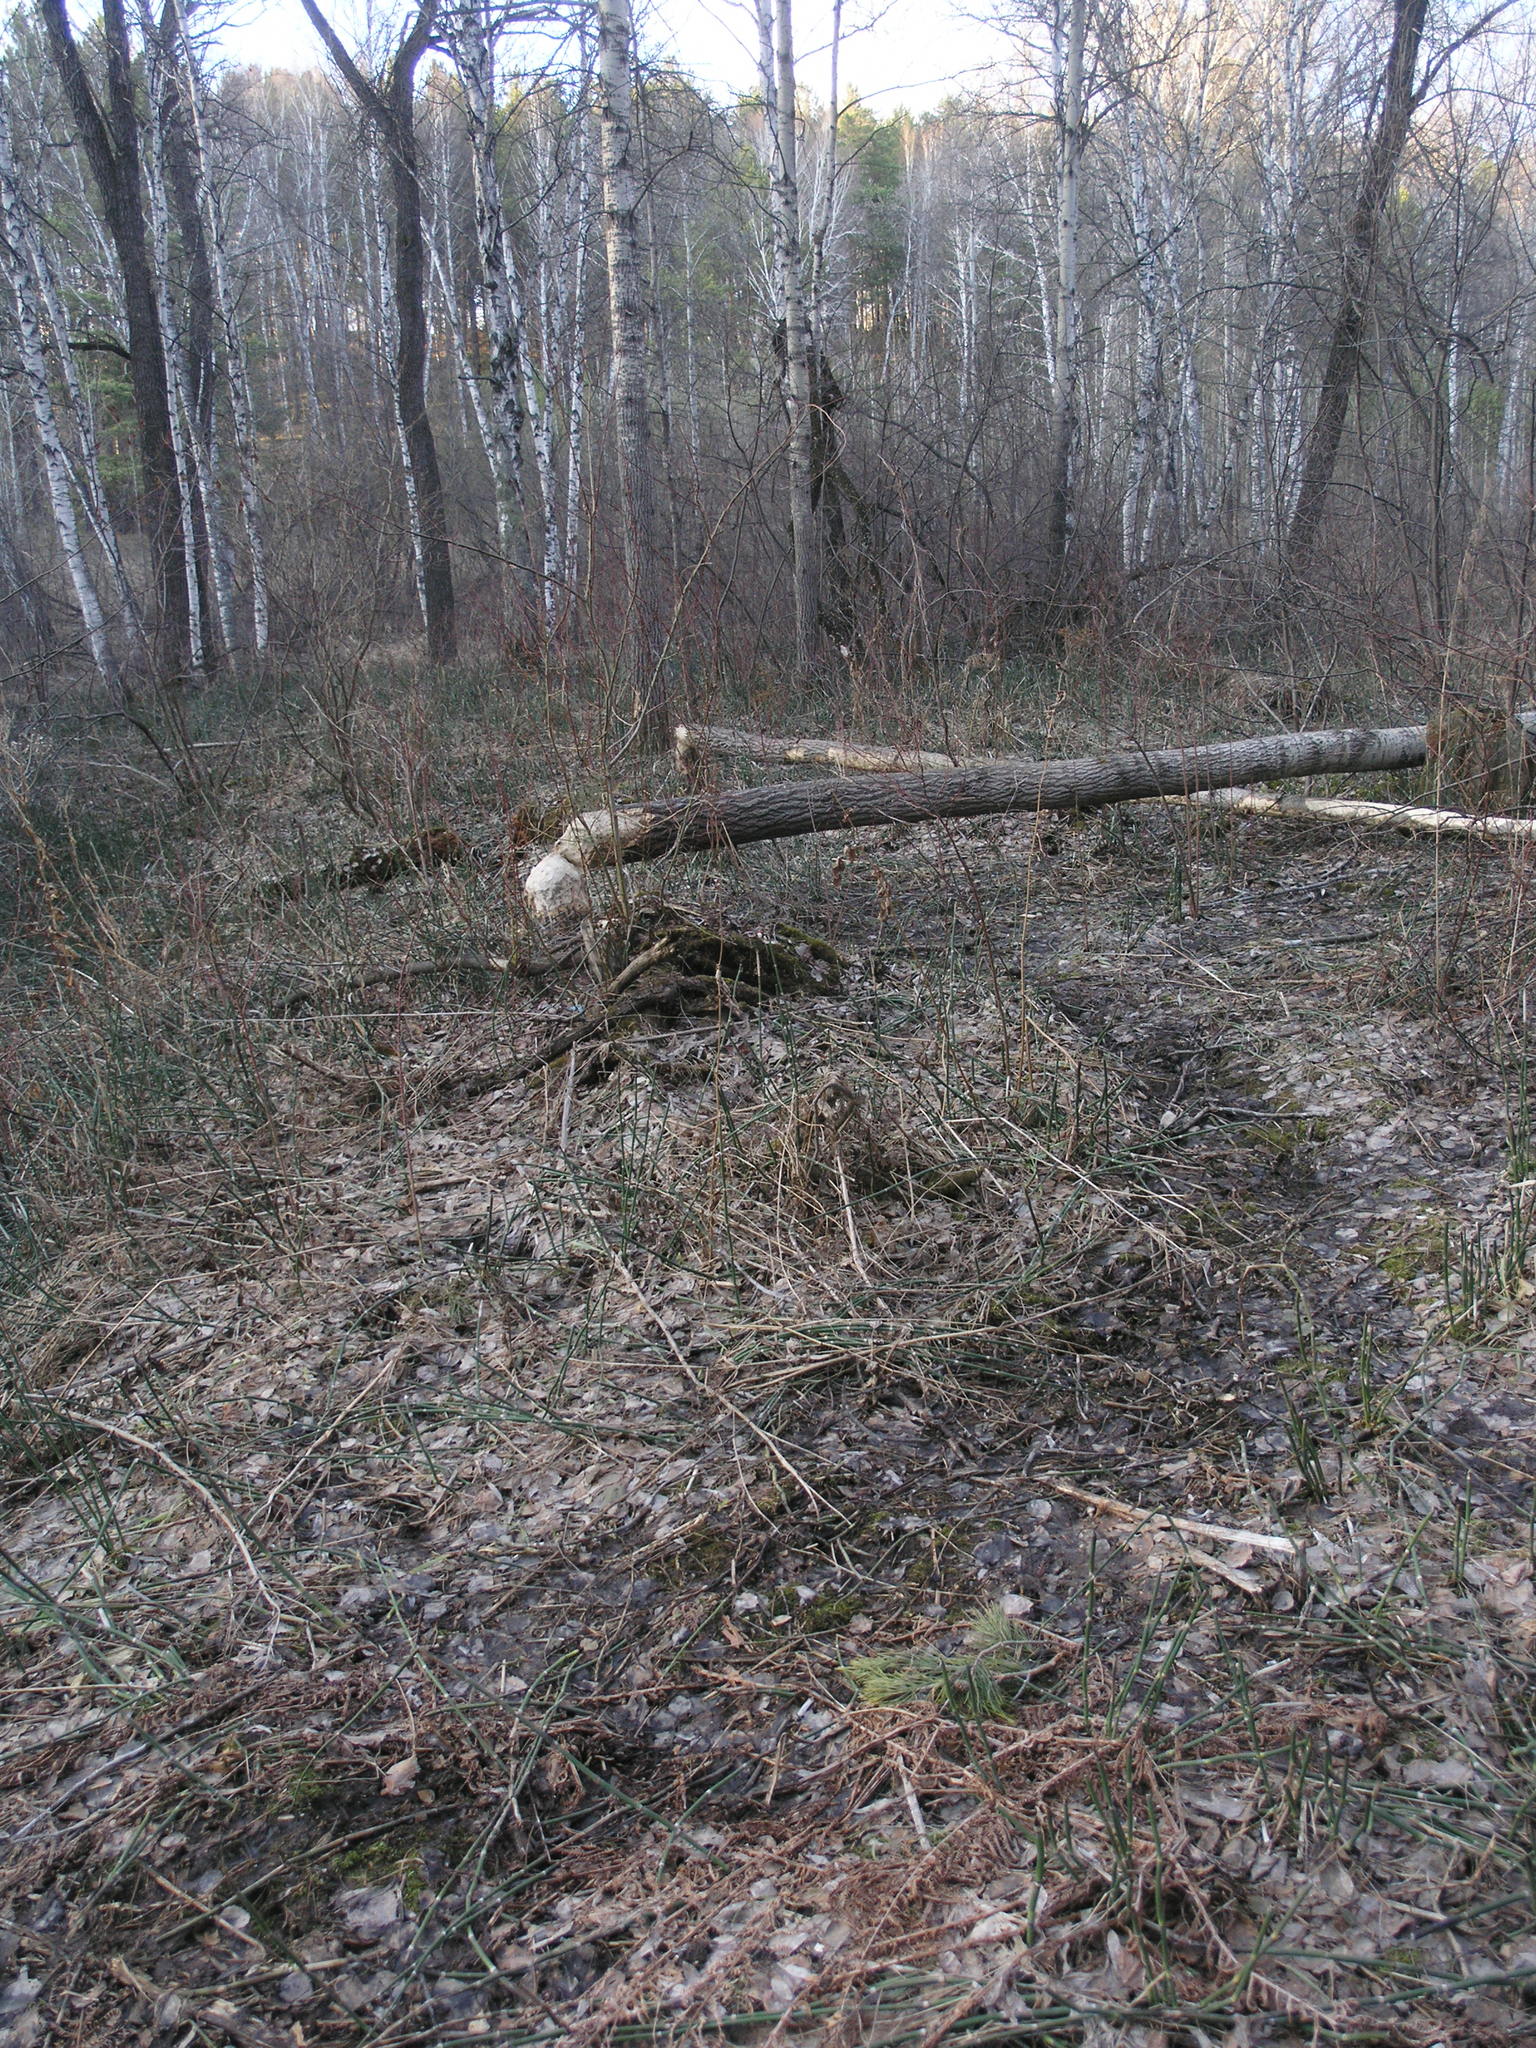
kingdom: Plantae
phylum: Tracheophyta
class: Magnoliopsida
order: Malpighiales
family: Salicaceae
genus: Populus
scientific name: Populus tremula
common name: European aspen
